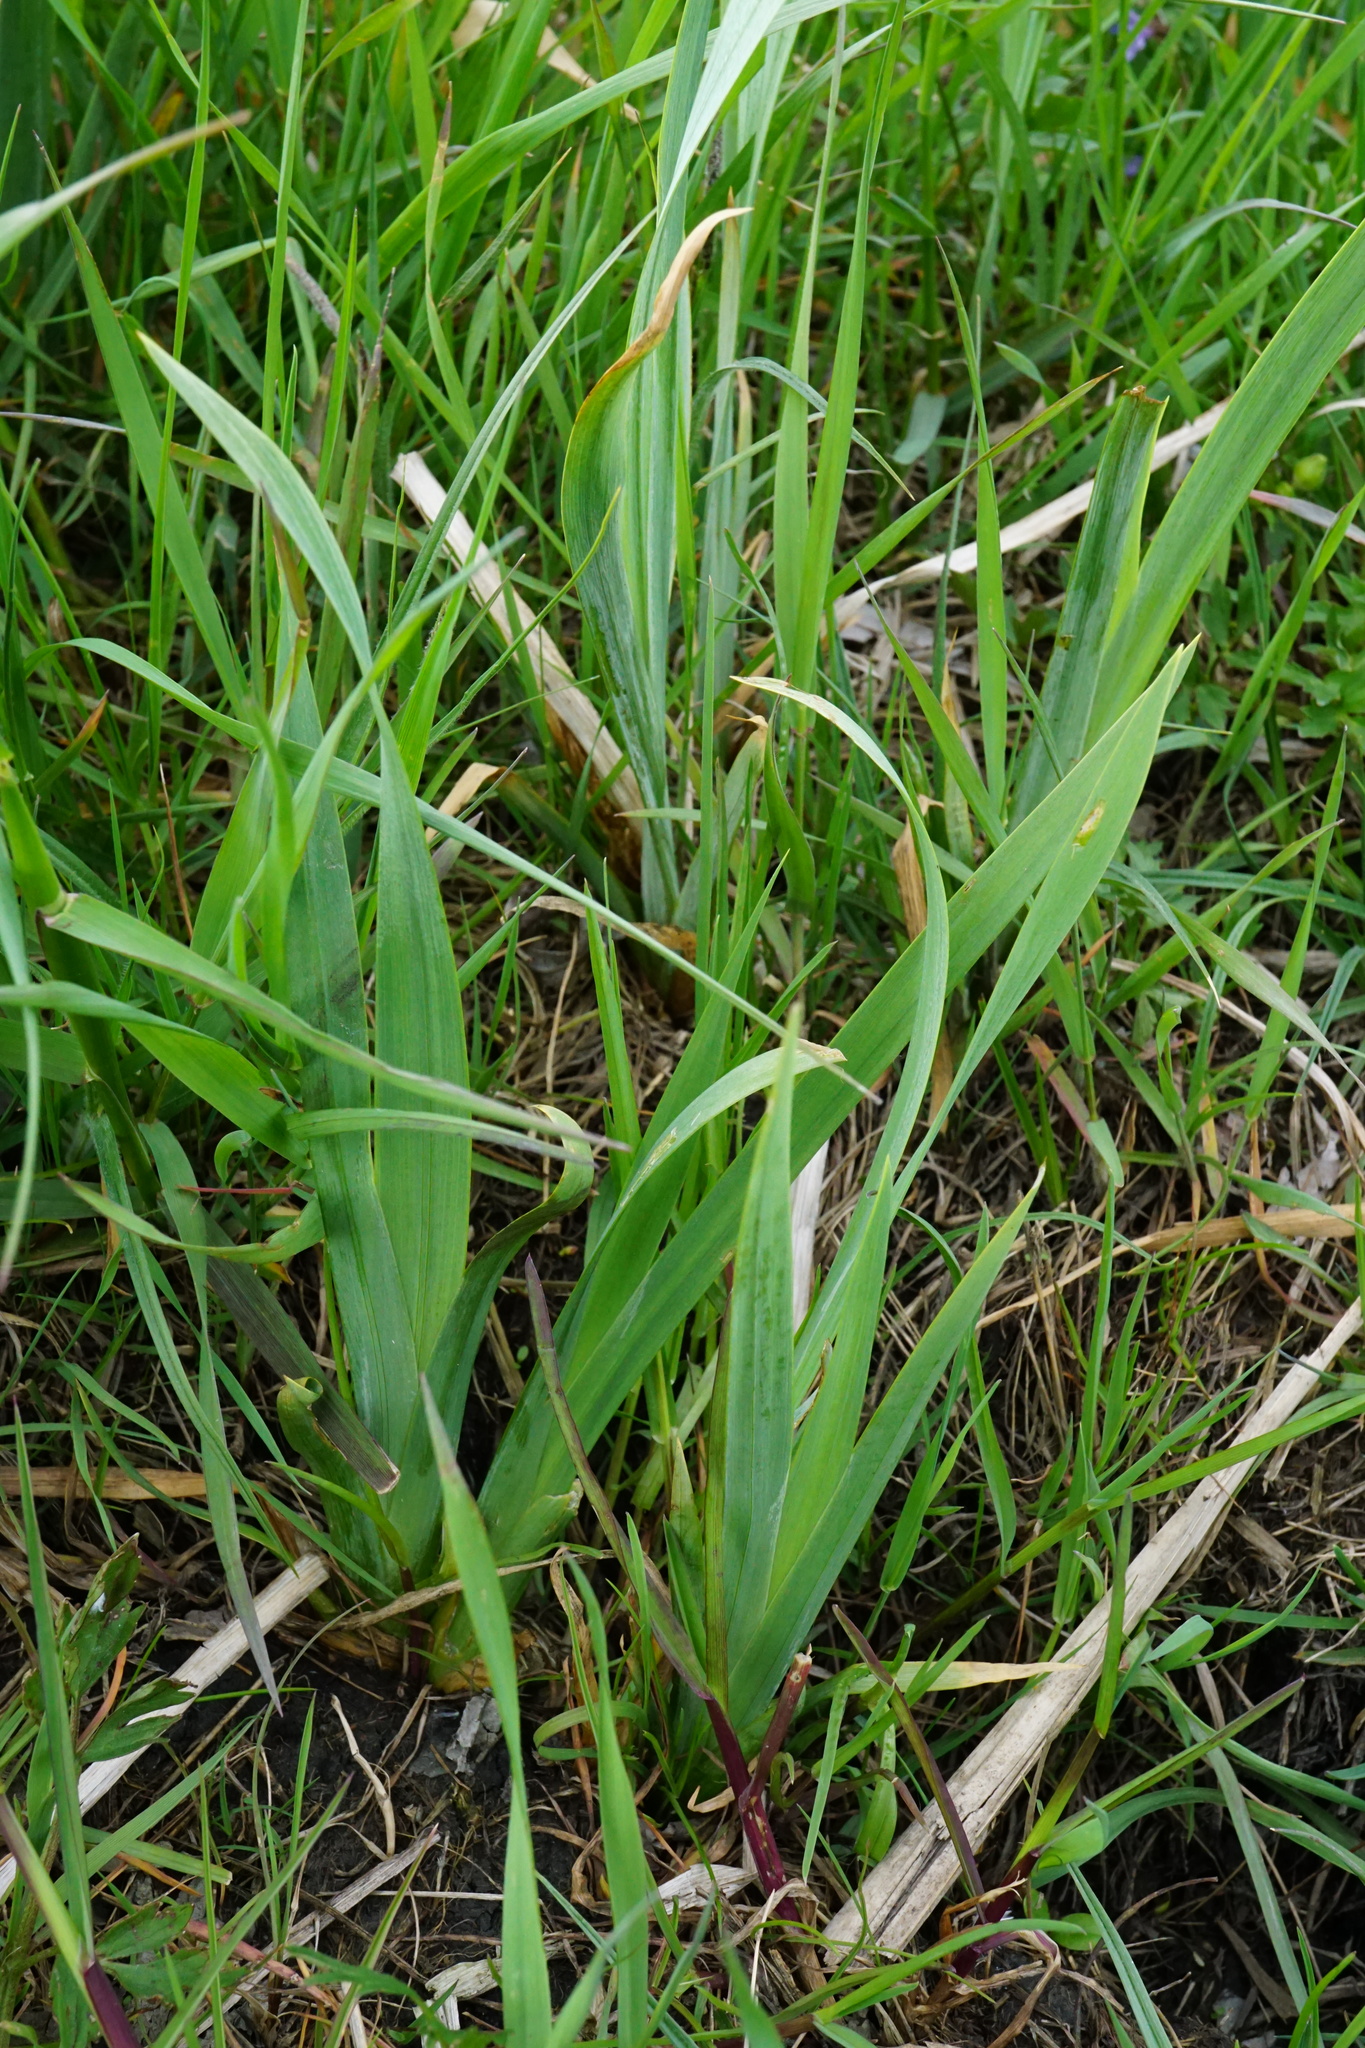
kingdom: Plantae
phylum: Tracheophyta
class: Liliopsida
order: Asparagales
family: Iridaceae
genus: Iris
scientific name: Iris pseudacorus
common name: Yellow flag
